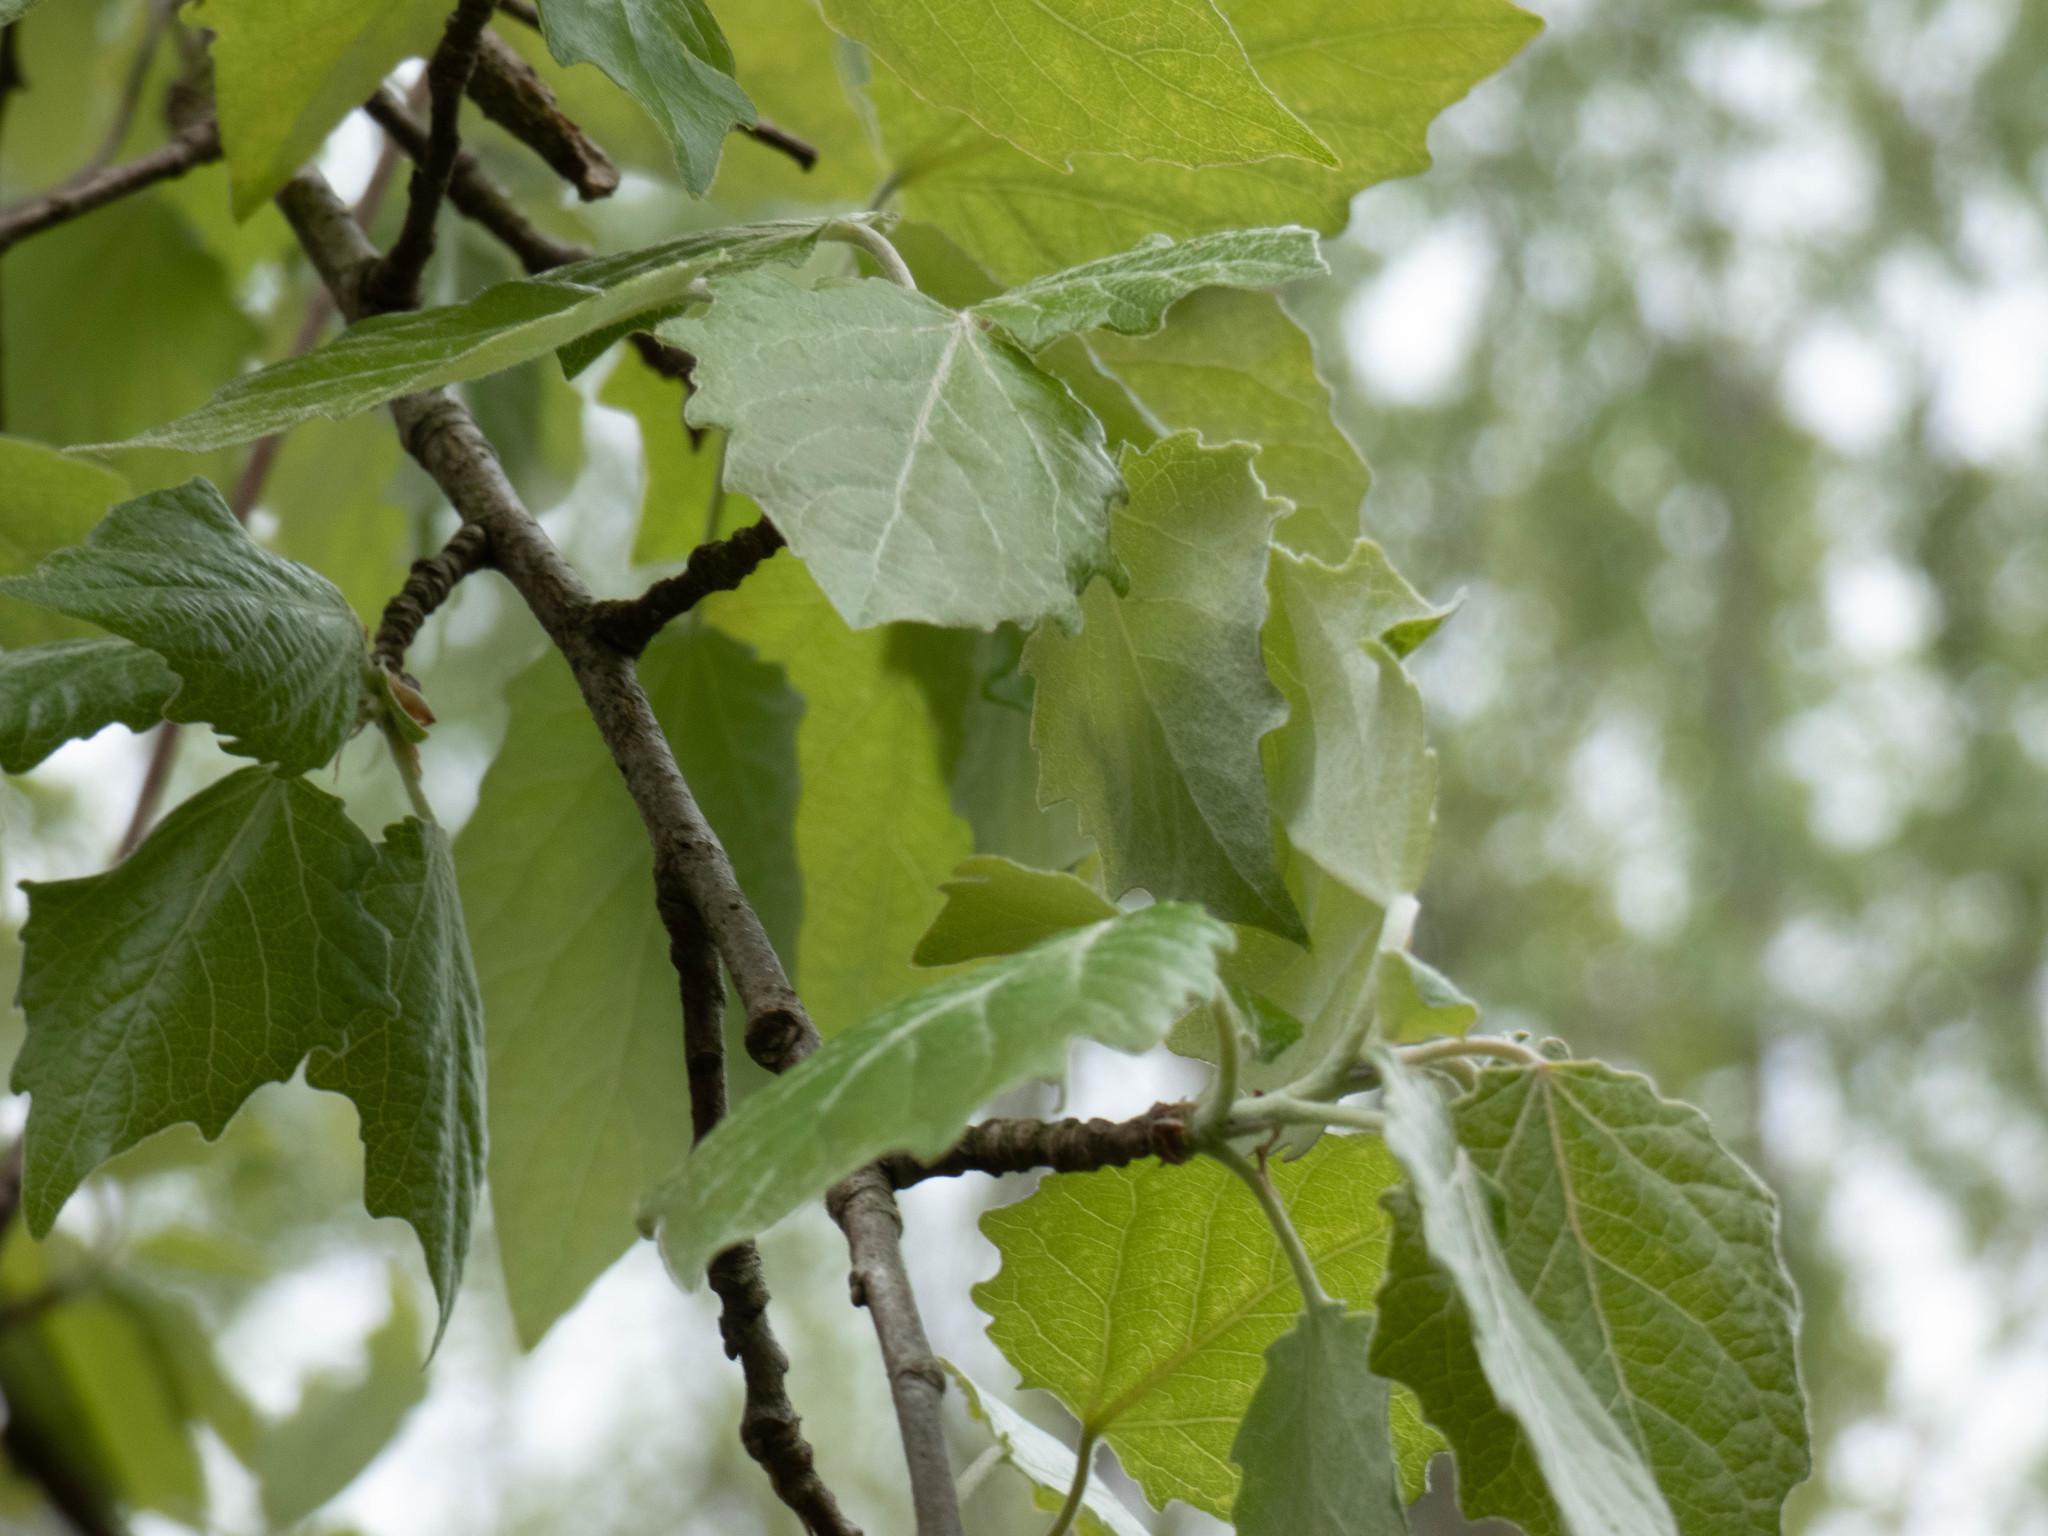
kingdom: Plantae
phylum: Tracheophyta
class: Magnoliopsida
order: Malpighiales
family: Salicaceae
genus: Populus
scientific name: Populus alba
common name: White poplar
